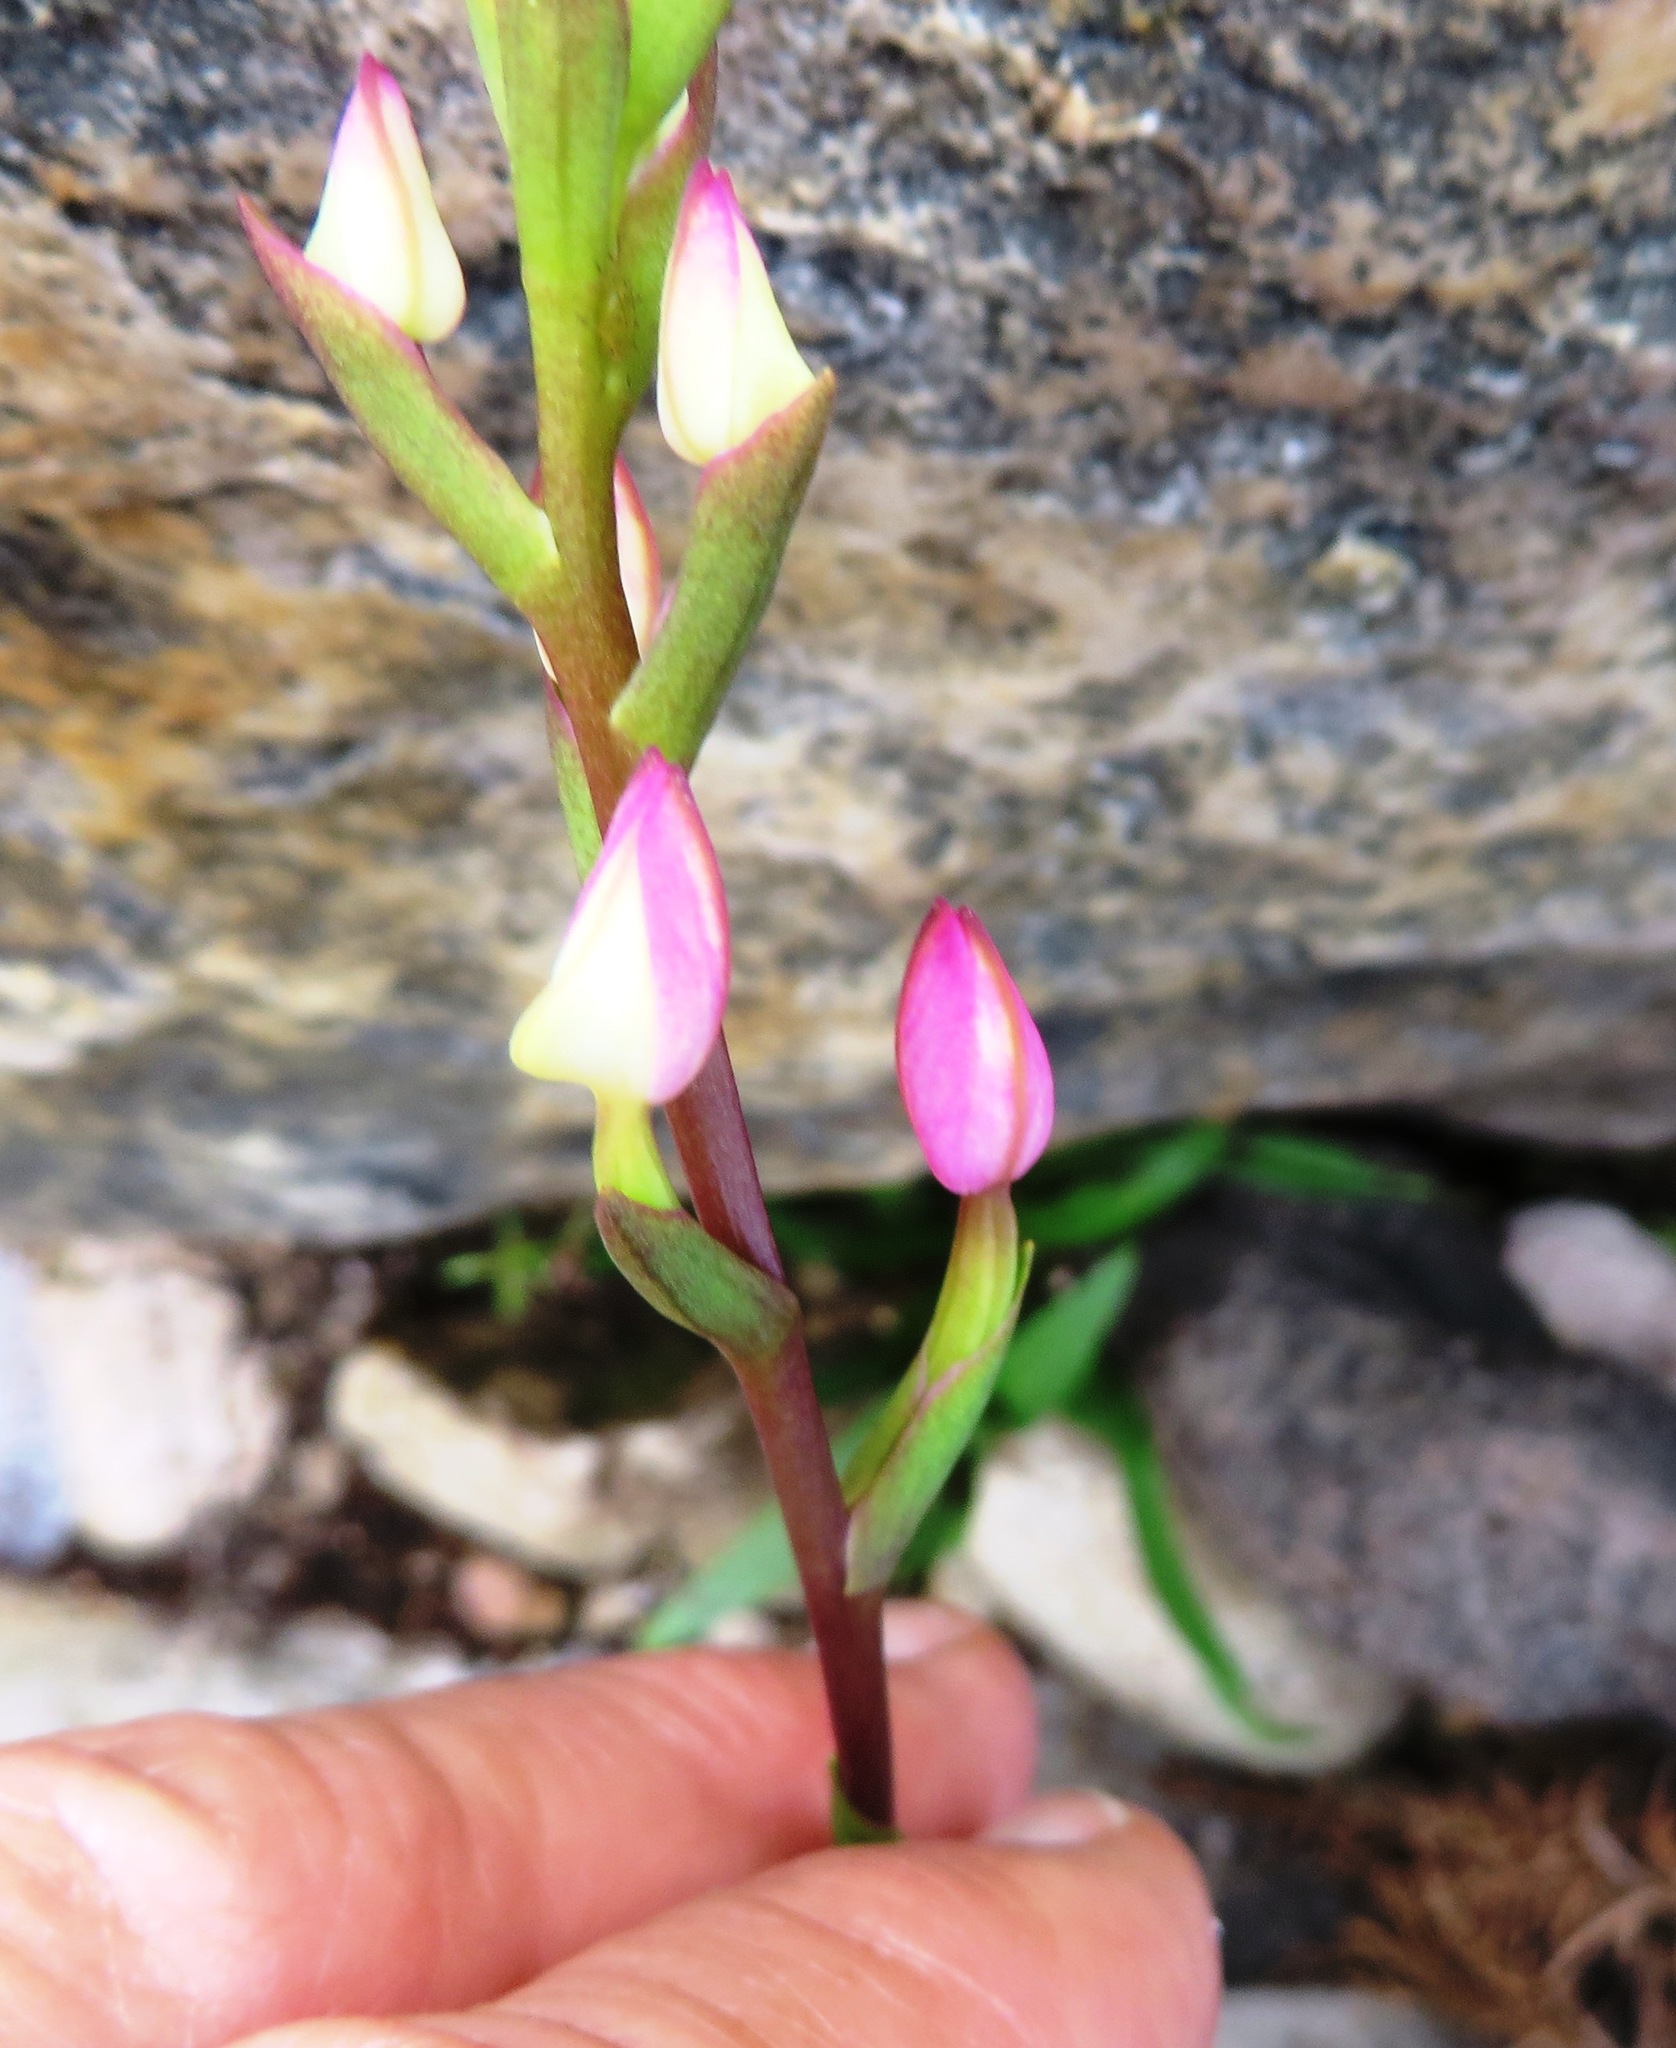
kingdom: Plantae
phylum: Tracheophyta
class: Liliopsida
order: Asparagales
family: Orchidaceae
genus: Disa
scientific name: Disa tripetaloides
